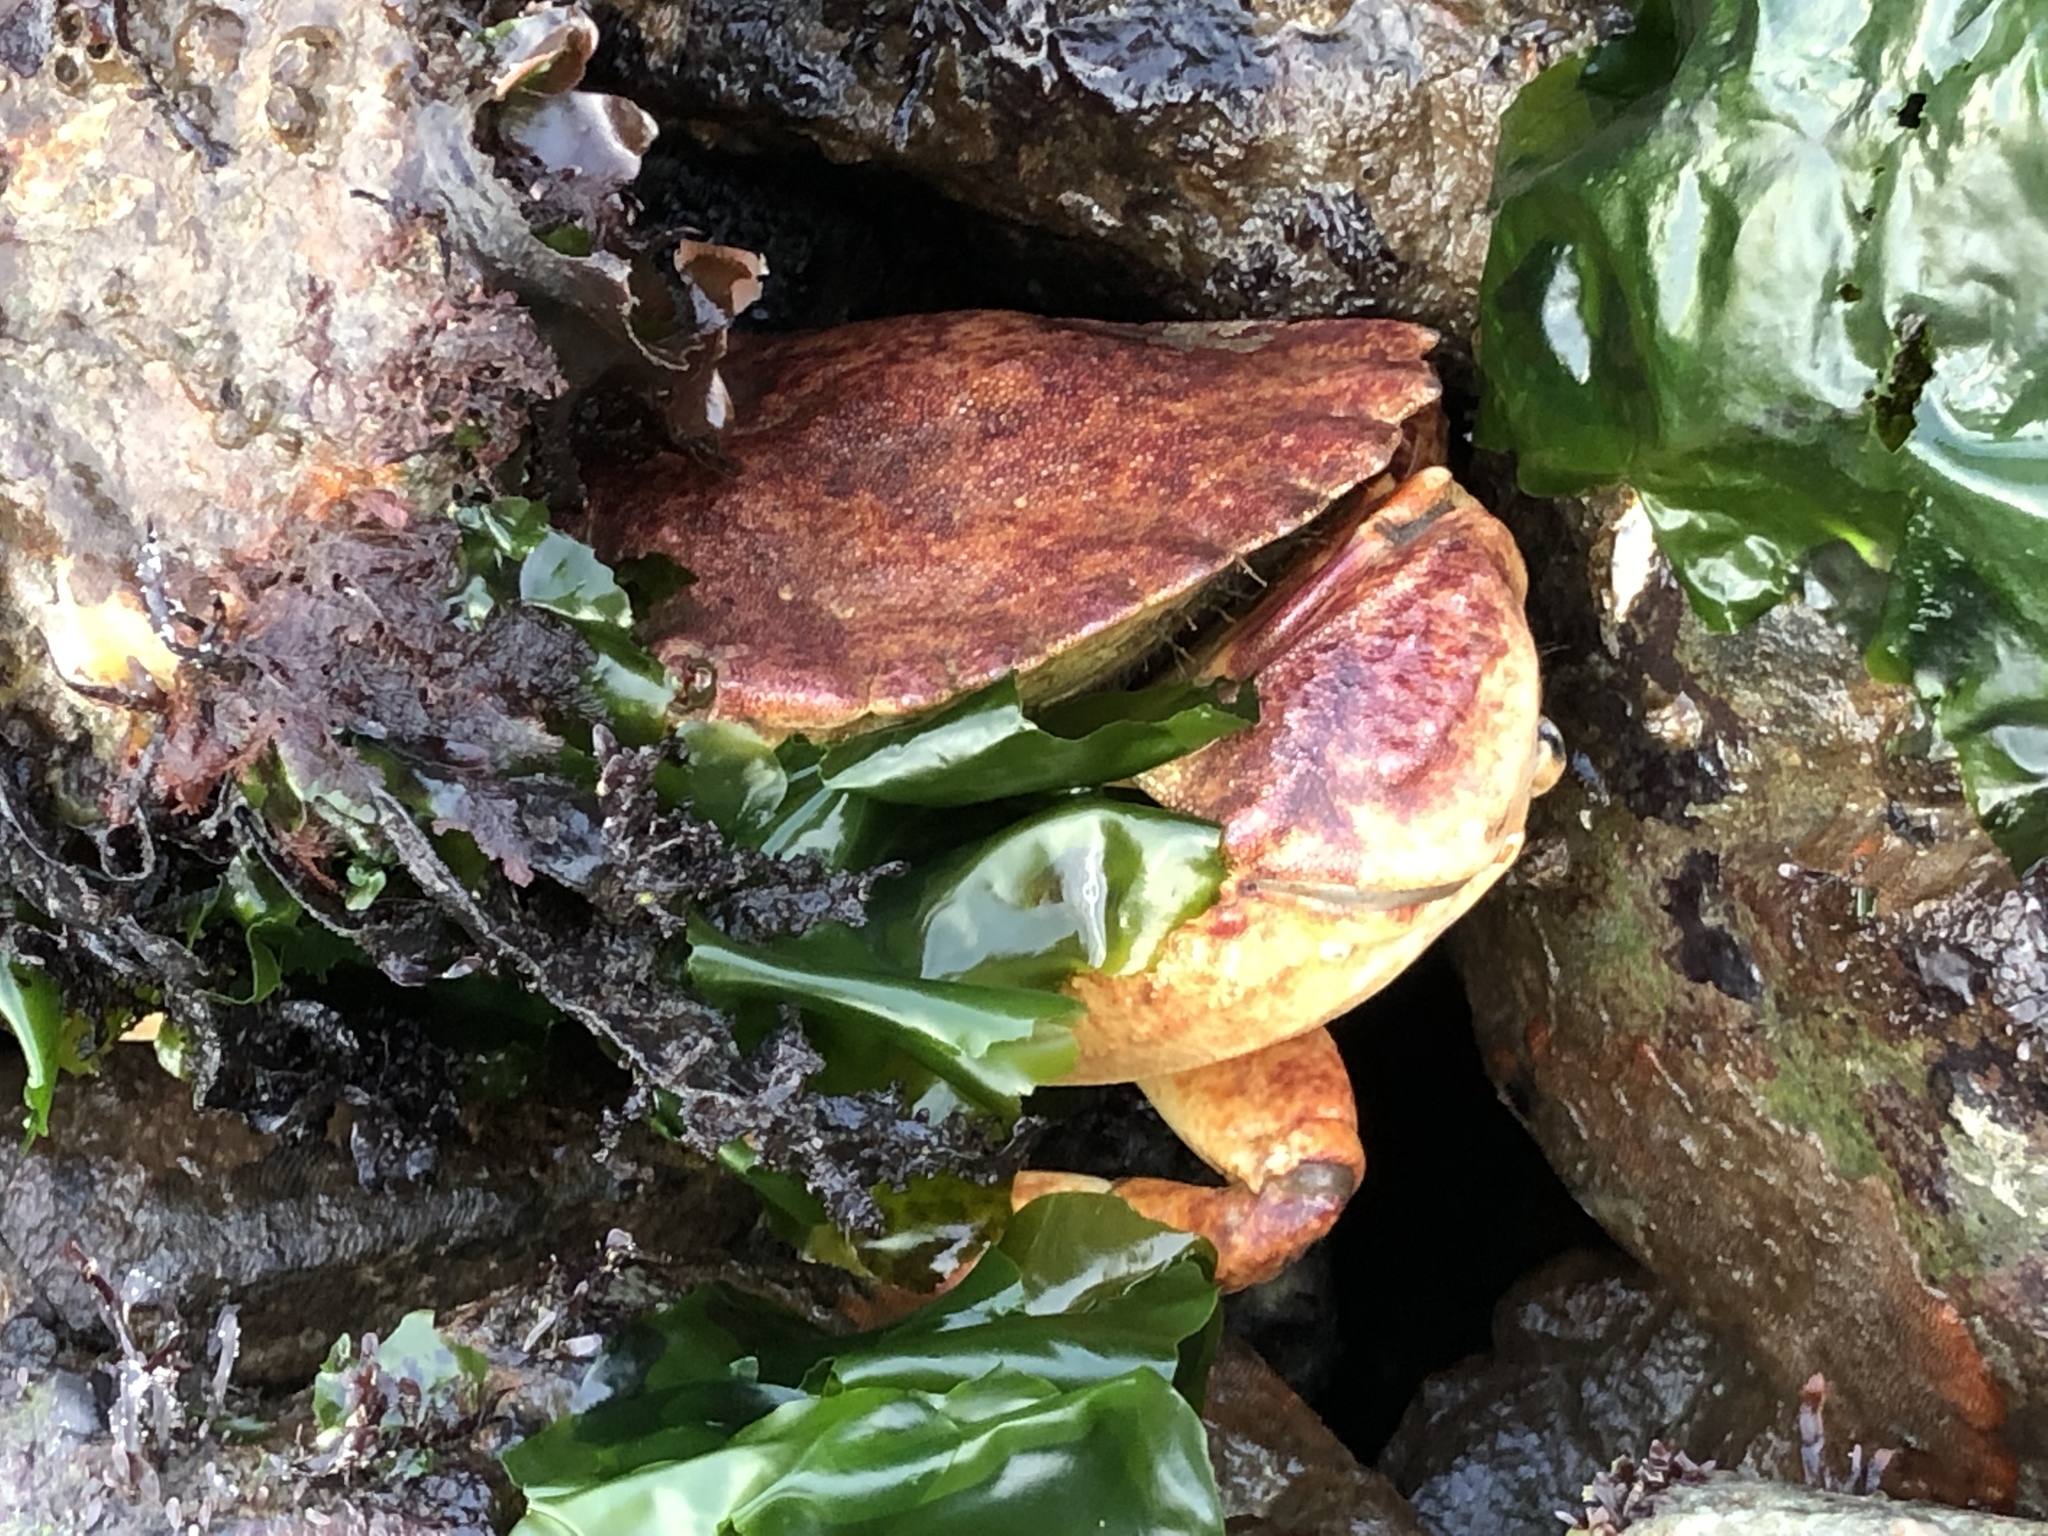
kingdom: Animalia
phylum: Arthropoda
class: Malacostraca
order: Decapoda
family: Cancridae
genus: Cancer
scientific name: Cancer productus
